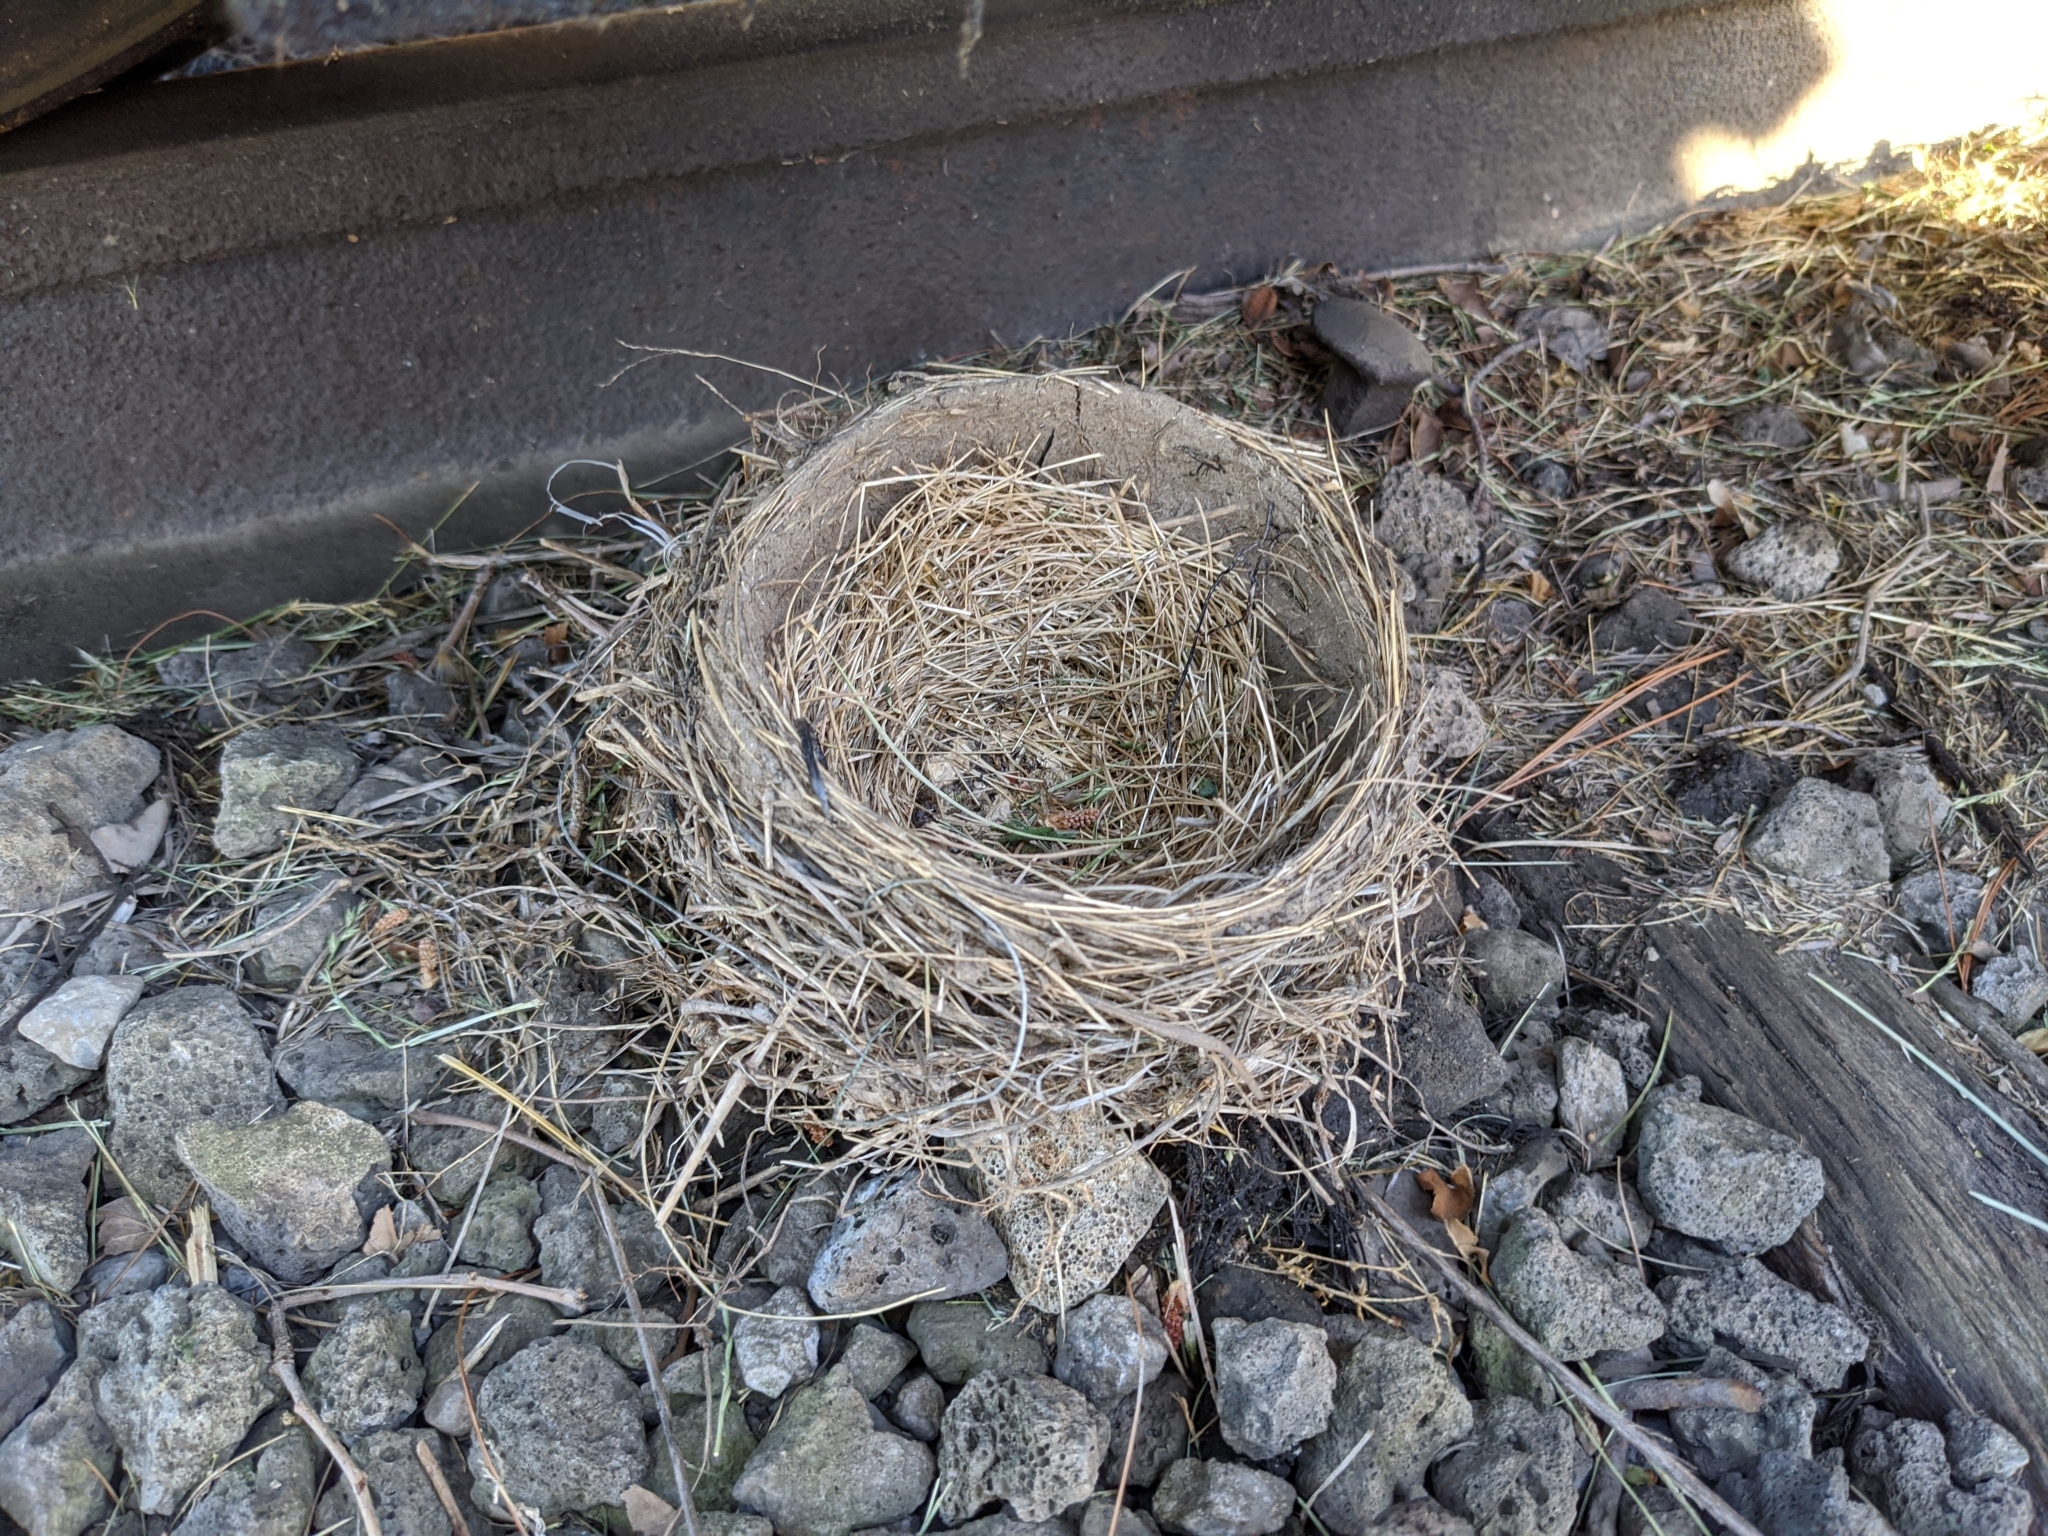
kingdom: Animalia
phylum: Chordata
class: Aves
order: Passeriformes
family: Turdidae
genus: Turdus
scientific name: Turdus migratorius
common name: American robin
